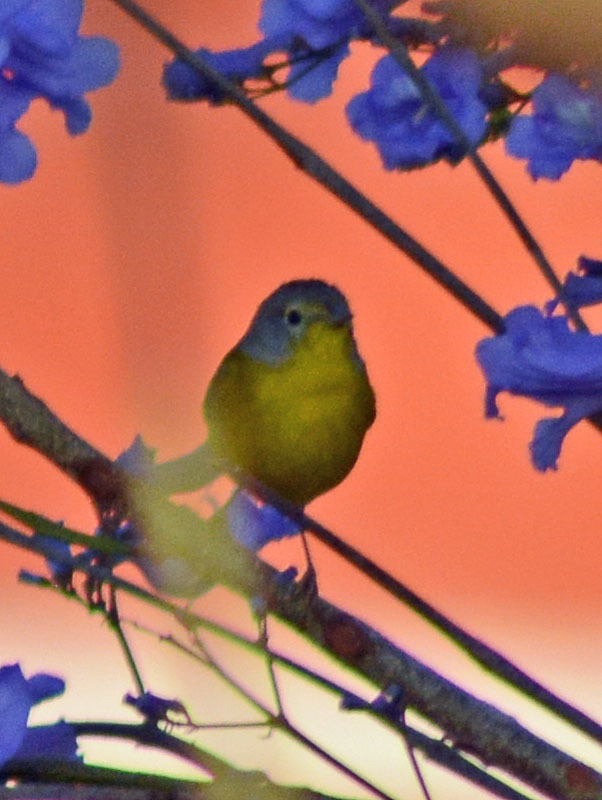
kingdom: Animalia
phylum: Chordata
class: Aves
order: Passeriformes
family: Parulidae
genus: Leiothlypis
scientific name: Leiothlypis ruficapilla
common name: Nashville warbler
